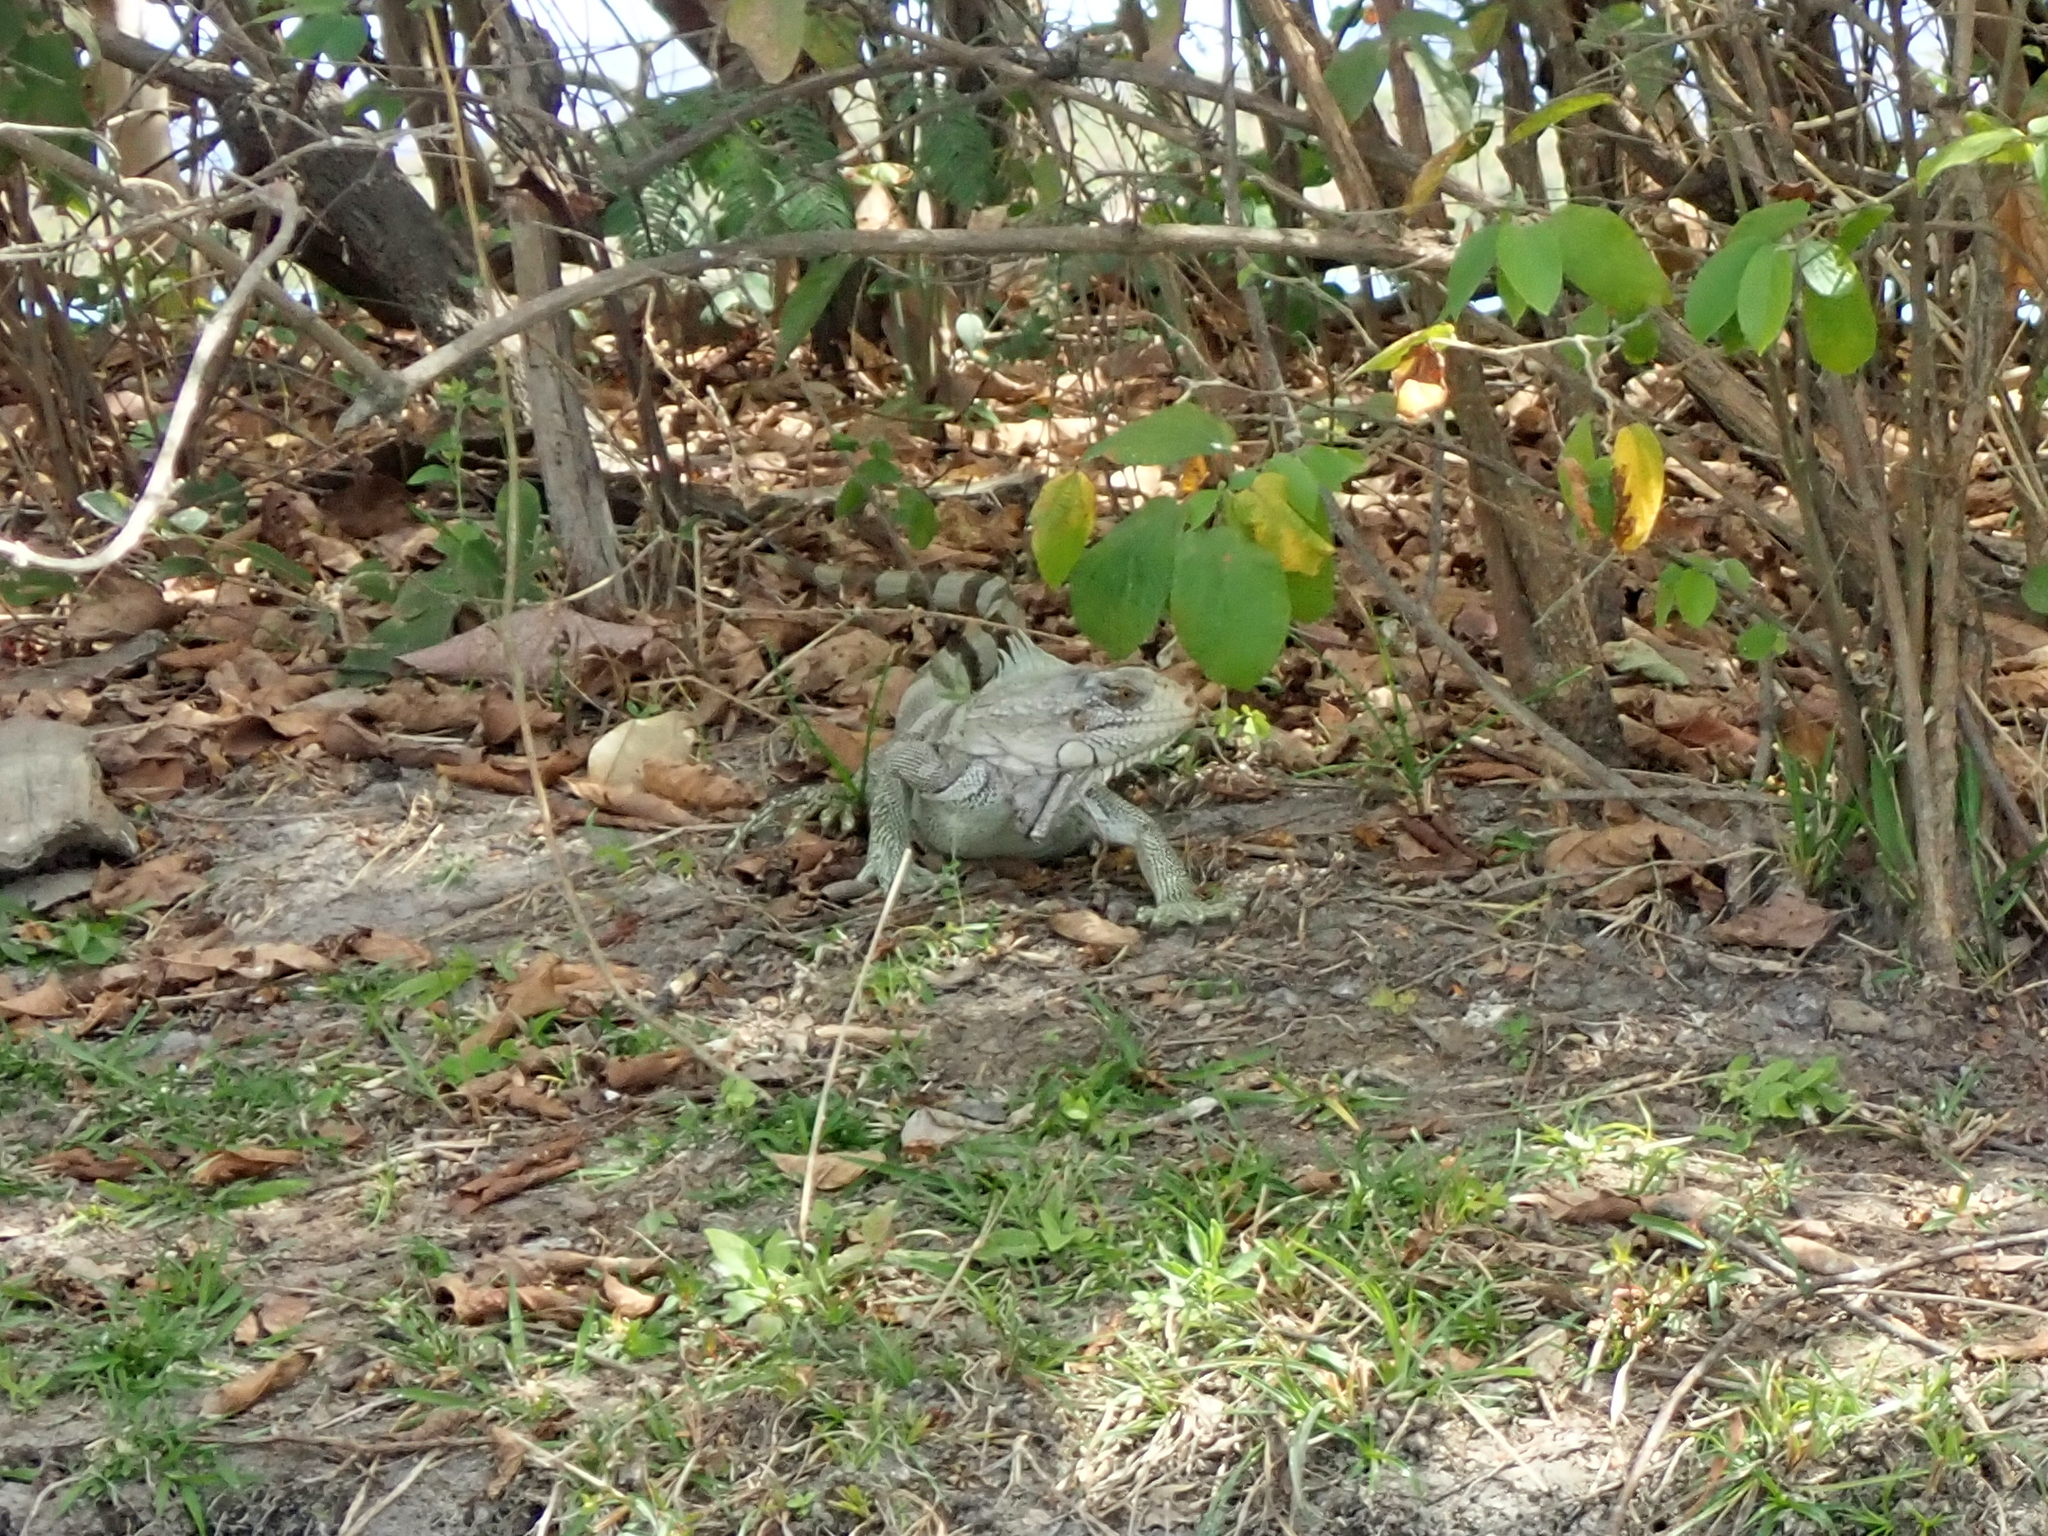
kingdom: Animalia
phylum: Chordata
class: Squamata
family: Iguanidae
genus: Iguana
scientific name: Iguana iguana
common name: Green iguana
